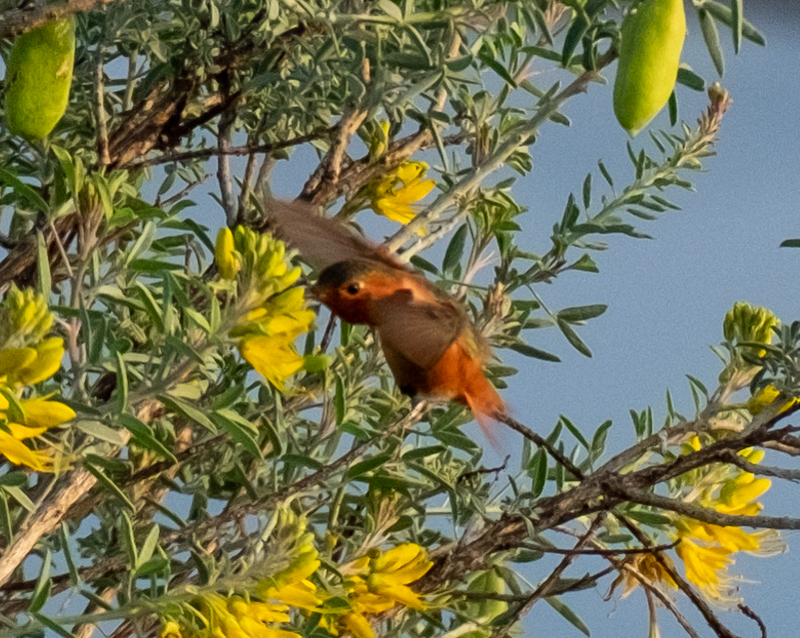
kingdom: Animalia
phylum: Chordata
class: Aves
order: Apodiformes
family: Trochilidae
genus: Selasphorus
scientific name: Selasphorus sasin
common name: Allen's hummingbird
